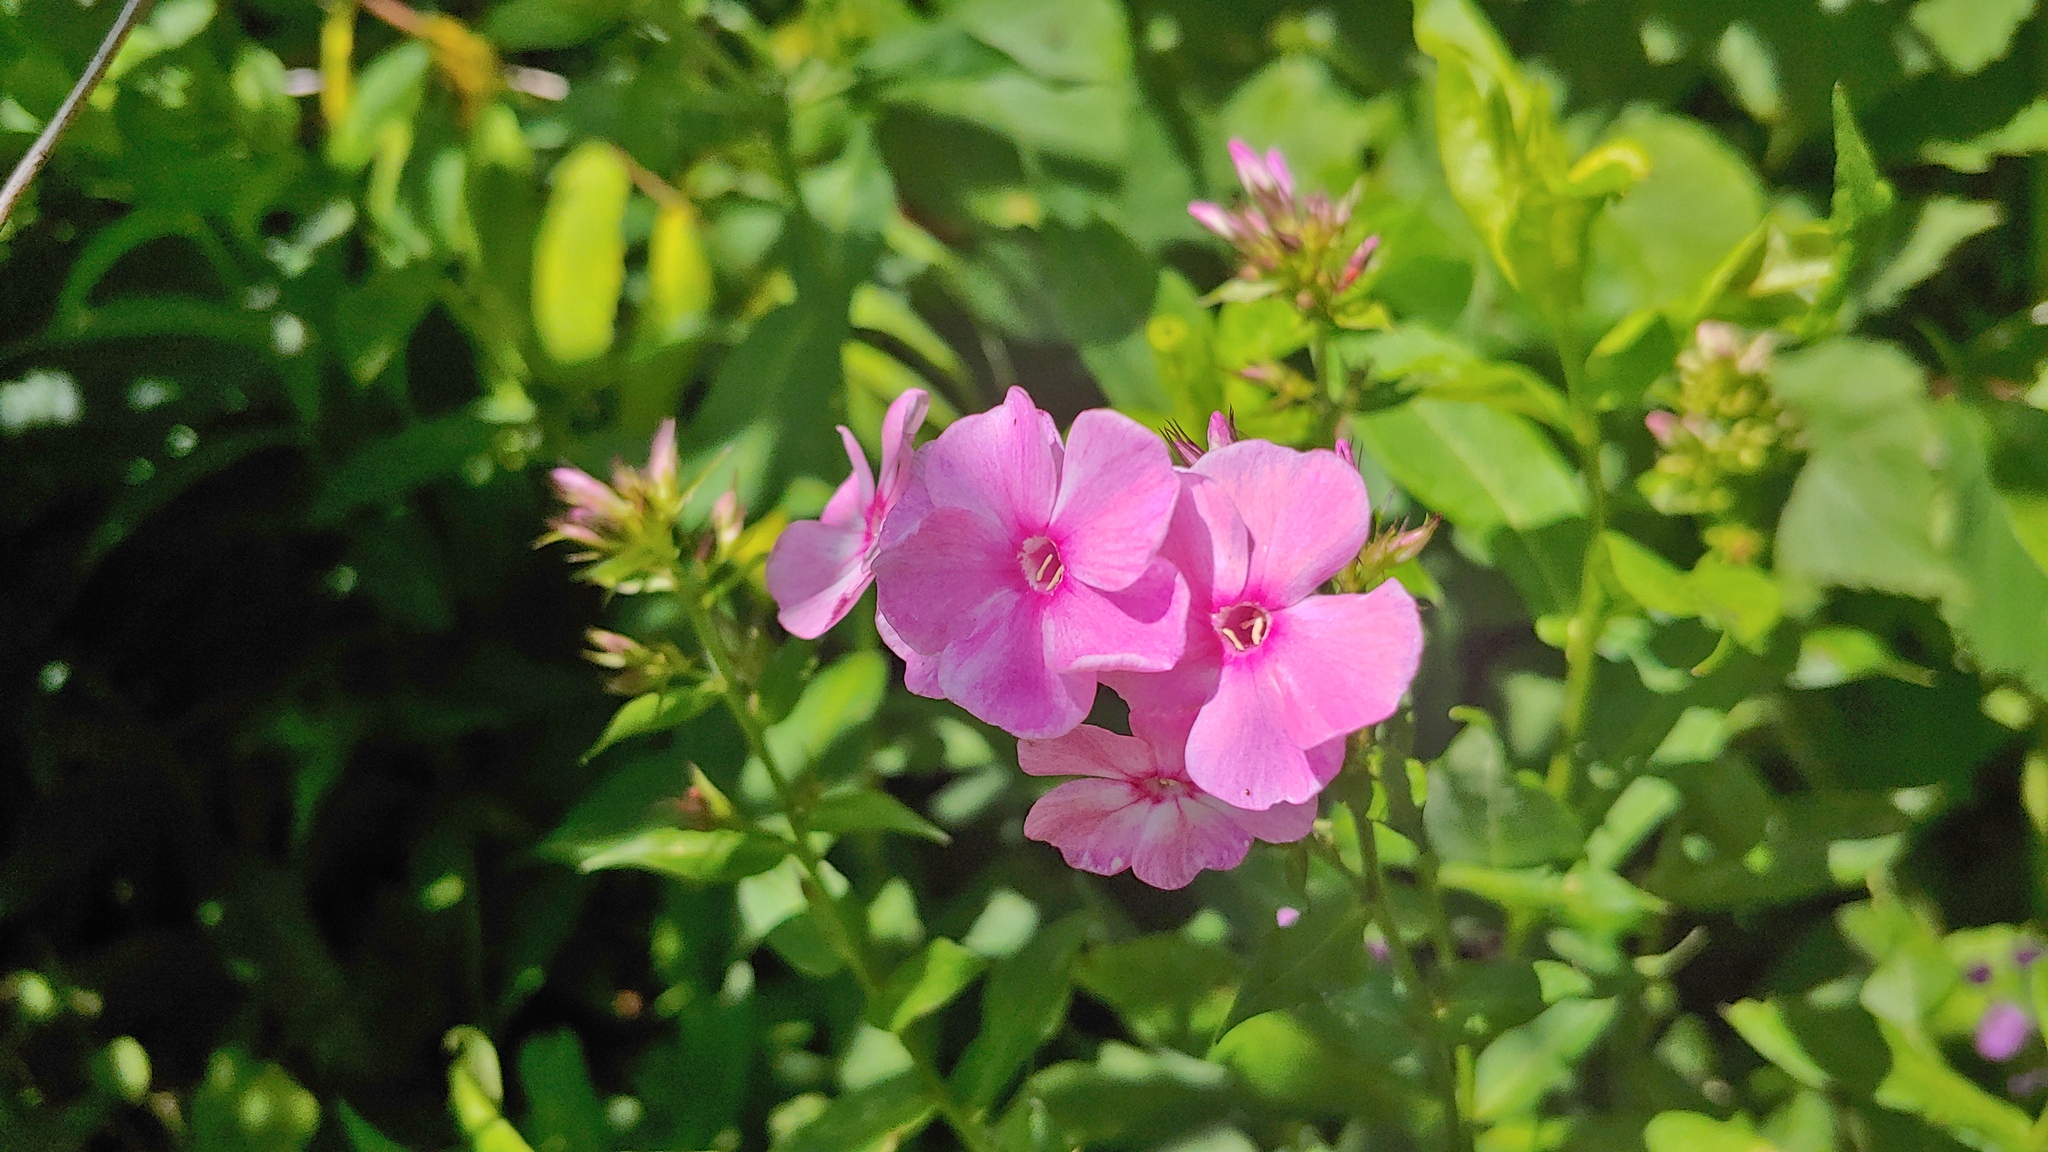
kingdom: Plantae
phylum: Tracheophyta
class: Magnoliopsida
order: Ericales
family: Polemoniaceae
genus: Phlox
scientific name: Phlox paniculata
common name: Fall phlox
